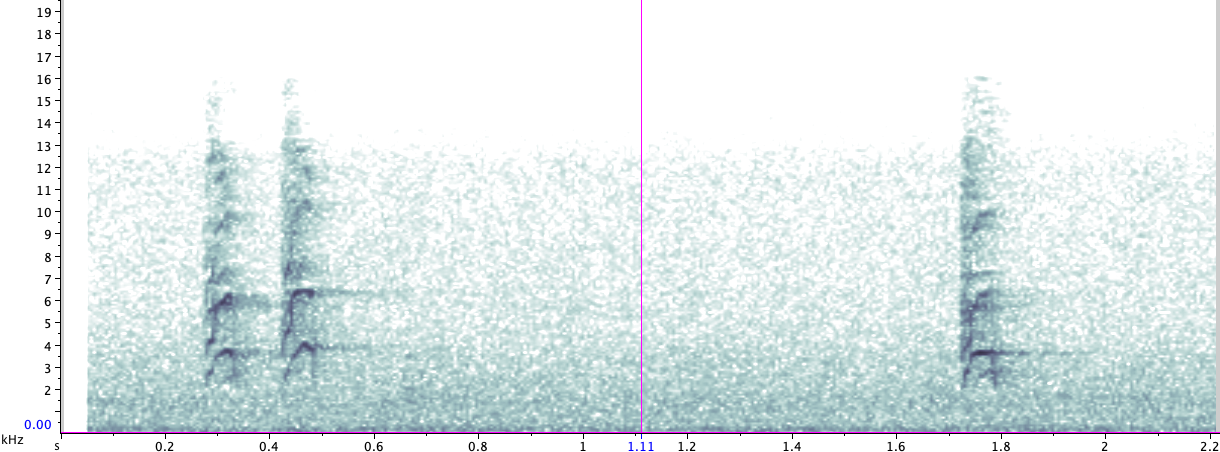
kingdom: Animalia
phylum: Chordata
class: Aves
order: Passeriformes
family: Turdidae
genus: Turdus
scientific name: Turdus migratorius
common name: American robin
